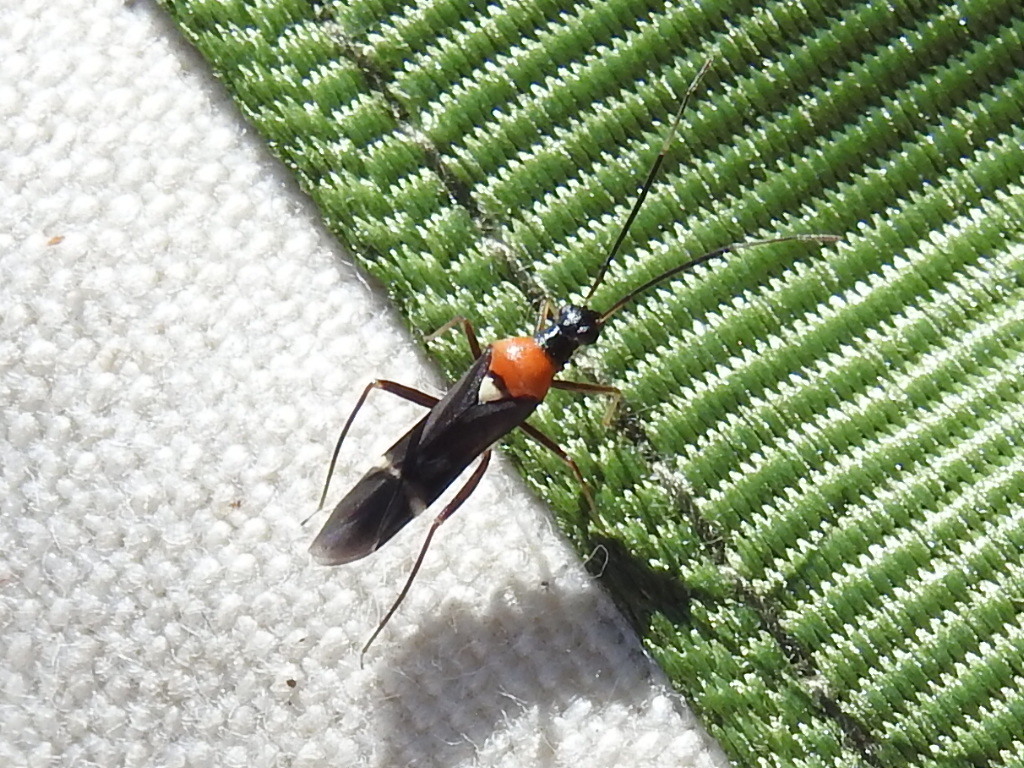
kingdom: Animalia
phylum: Arthropoda
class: Insecta
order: Hemiptera
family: Miridae
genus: Pseudoxenetus
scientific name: Pseudoxenetus regalis
